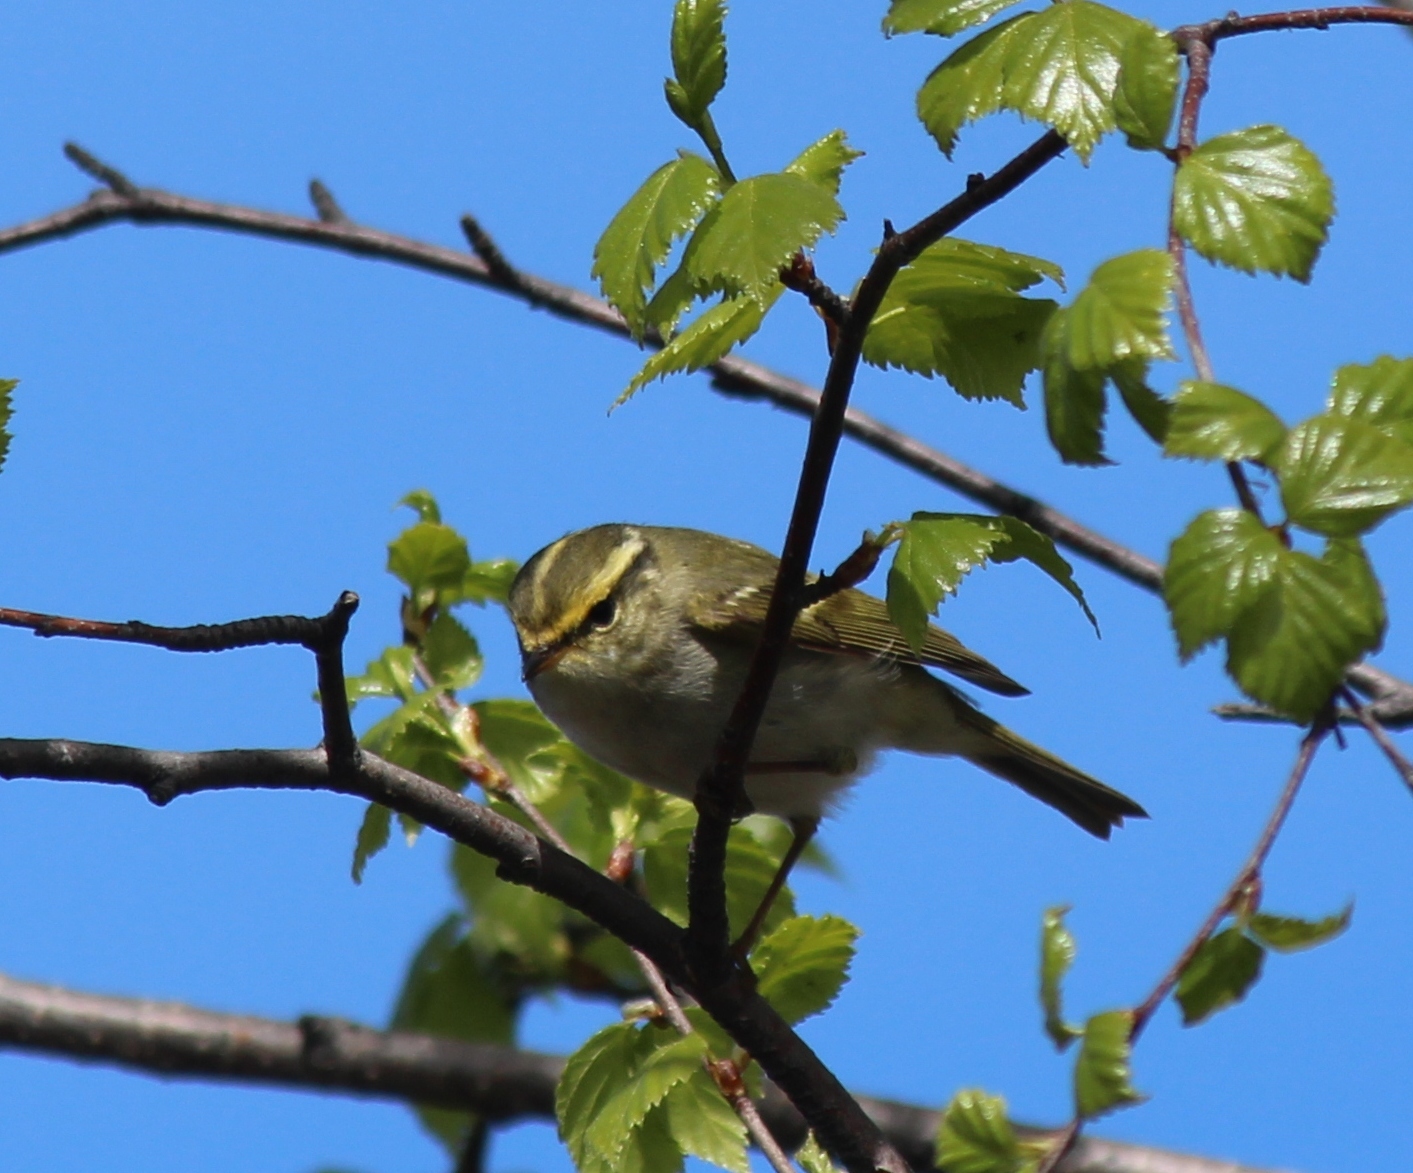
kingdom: Animalia
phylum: Chordata
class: Aves
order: Passeriformes
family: Phylloscopidae
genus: Phylloscopus
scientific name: Phylloscopus proregulus
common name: Pallas's leaf warbler
